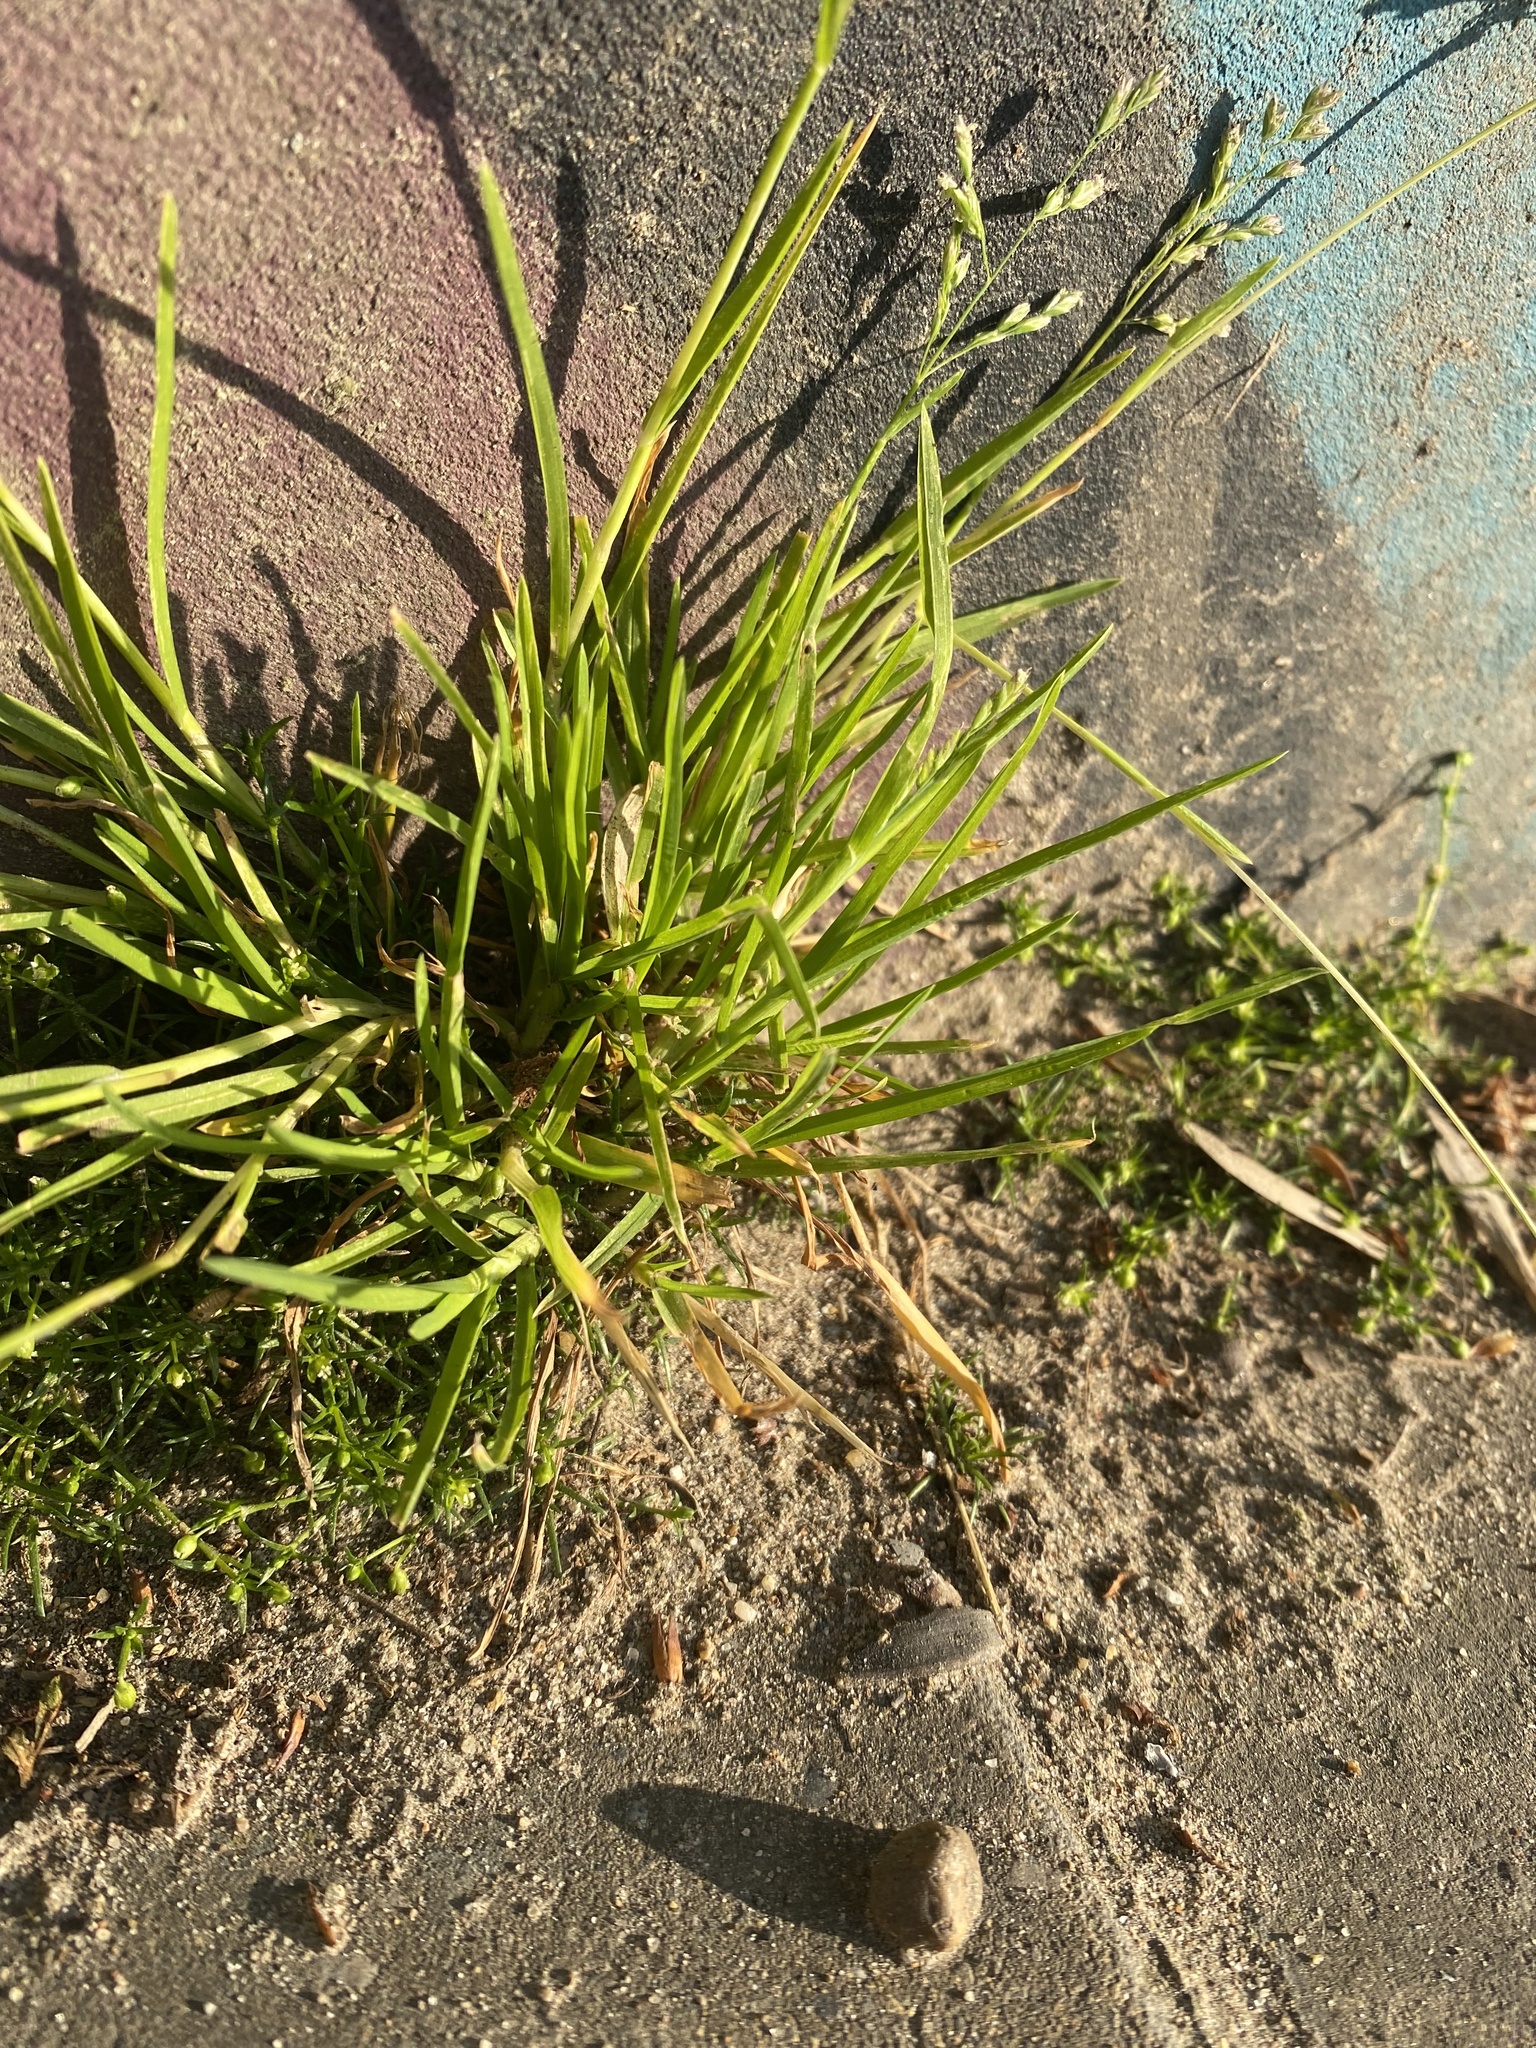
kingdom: Plantae
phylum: Tracheophyta
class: Liliopsida
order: Poales
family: Poaceae
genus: Poa
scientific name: Poa annua
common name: Annual bluegrass
